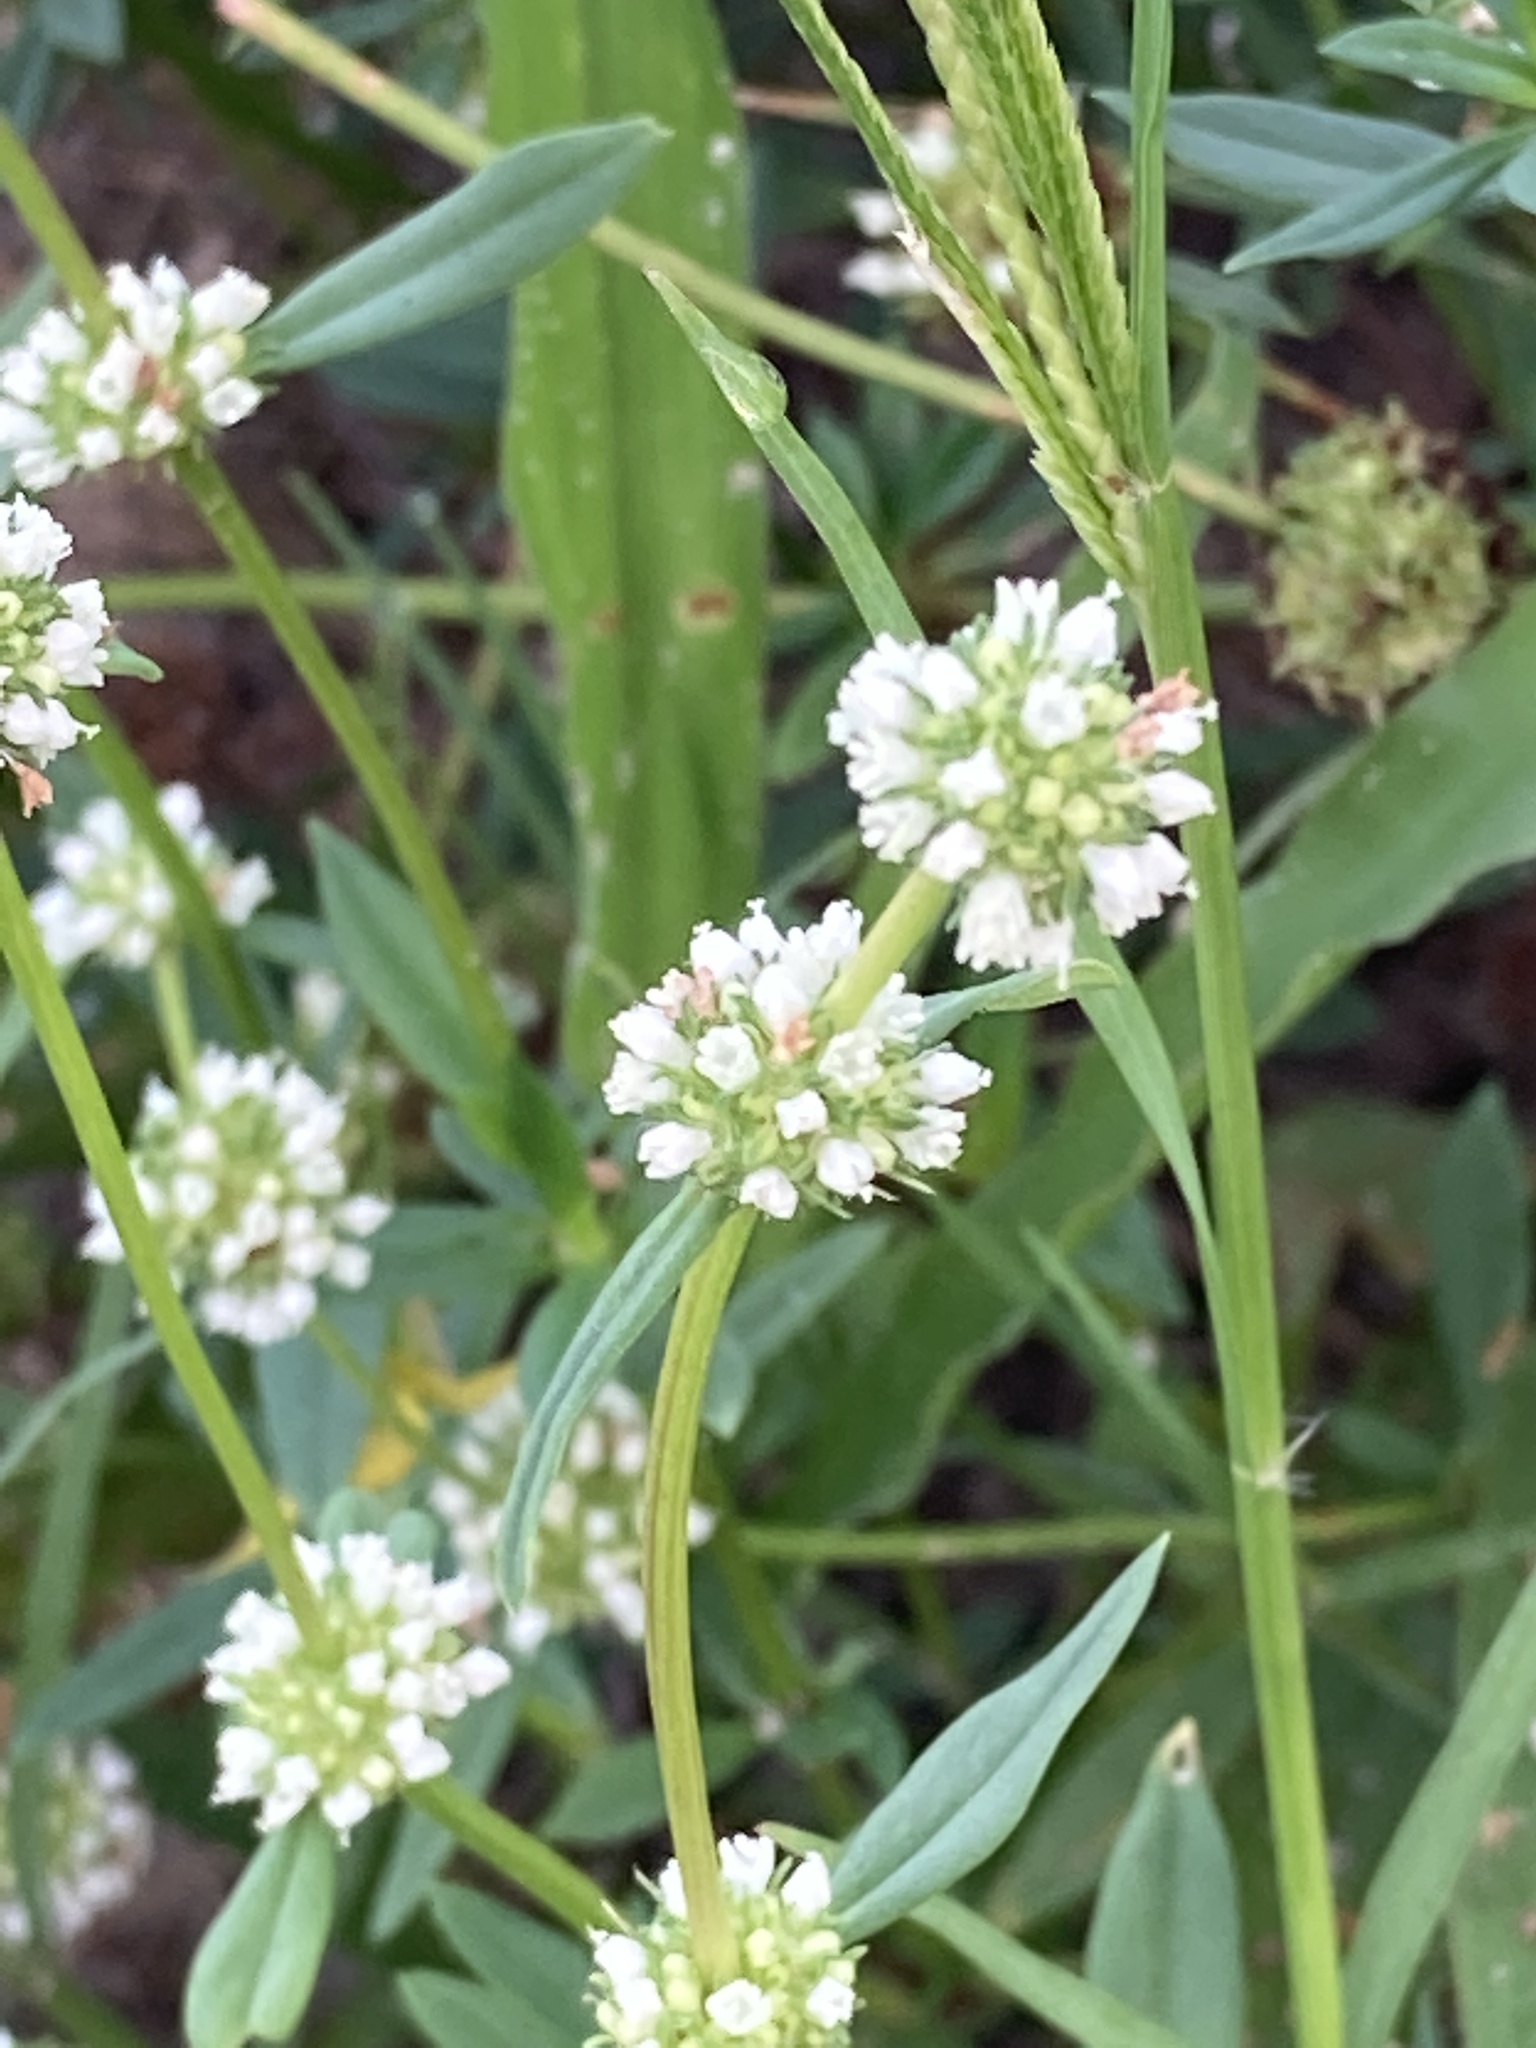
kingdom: Plantae
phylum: Tracheophyta
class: Magnoliopsida
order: Gentianales
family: Rubiaceae
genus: Spermacoce
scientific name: Spermacoce verticillata
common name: Shrubby false buttonweed
